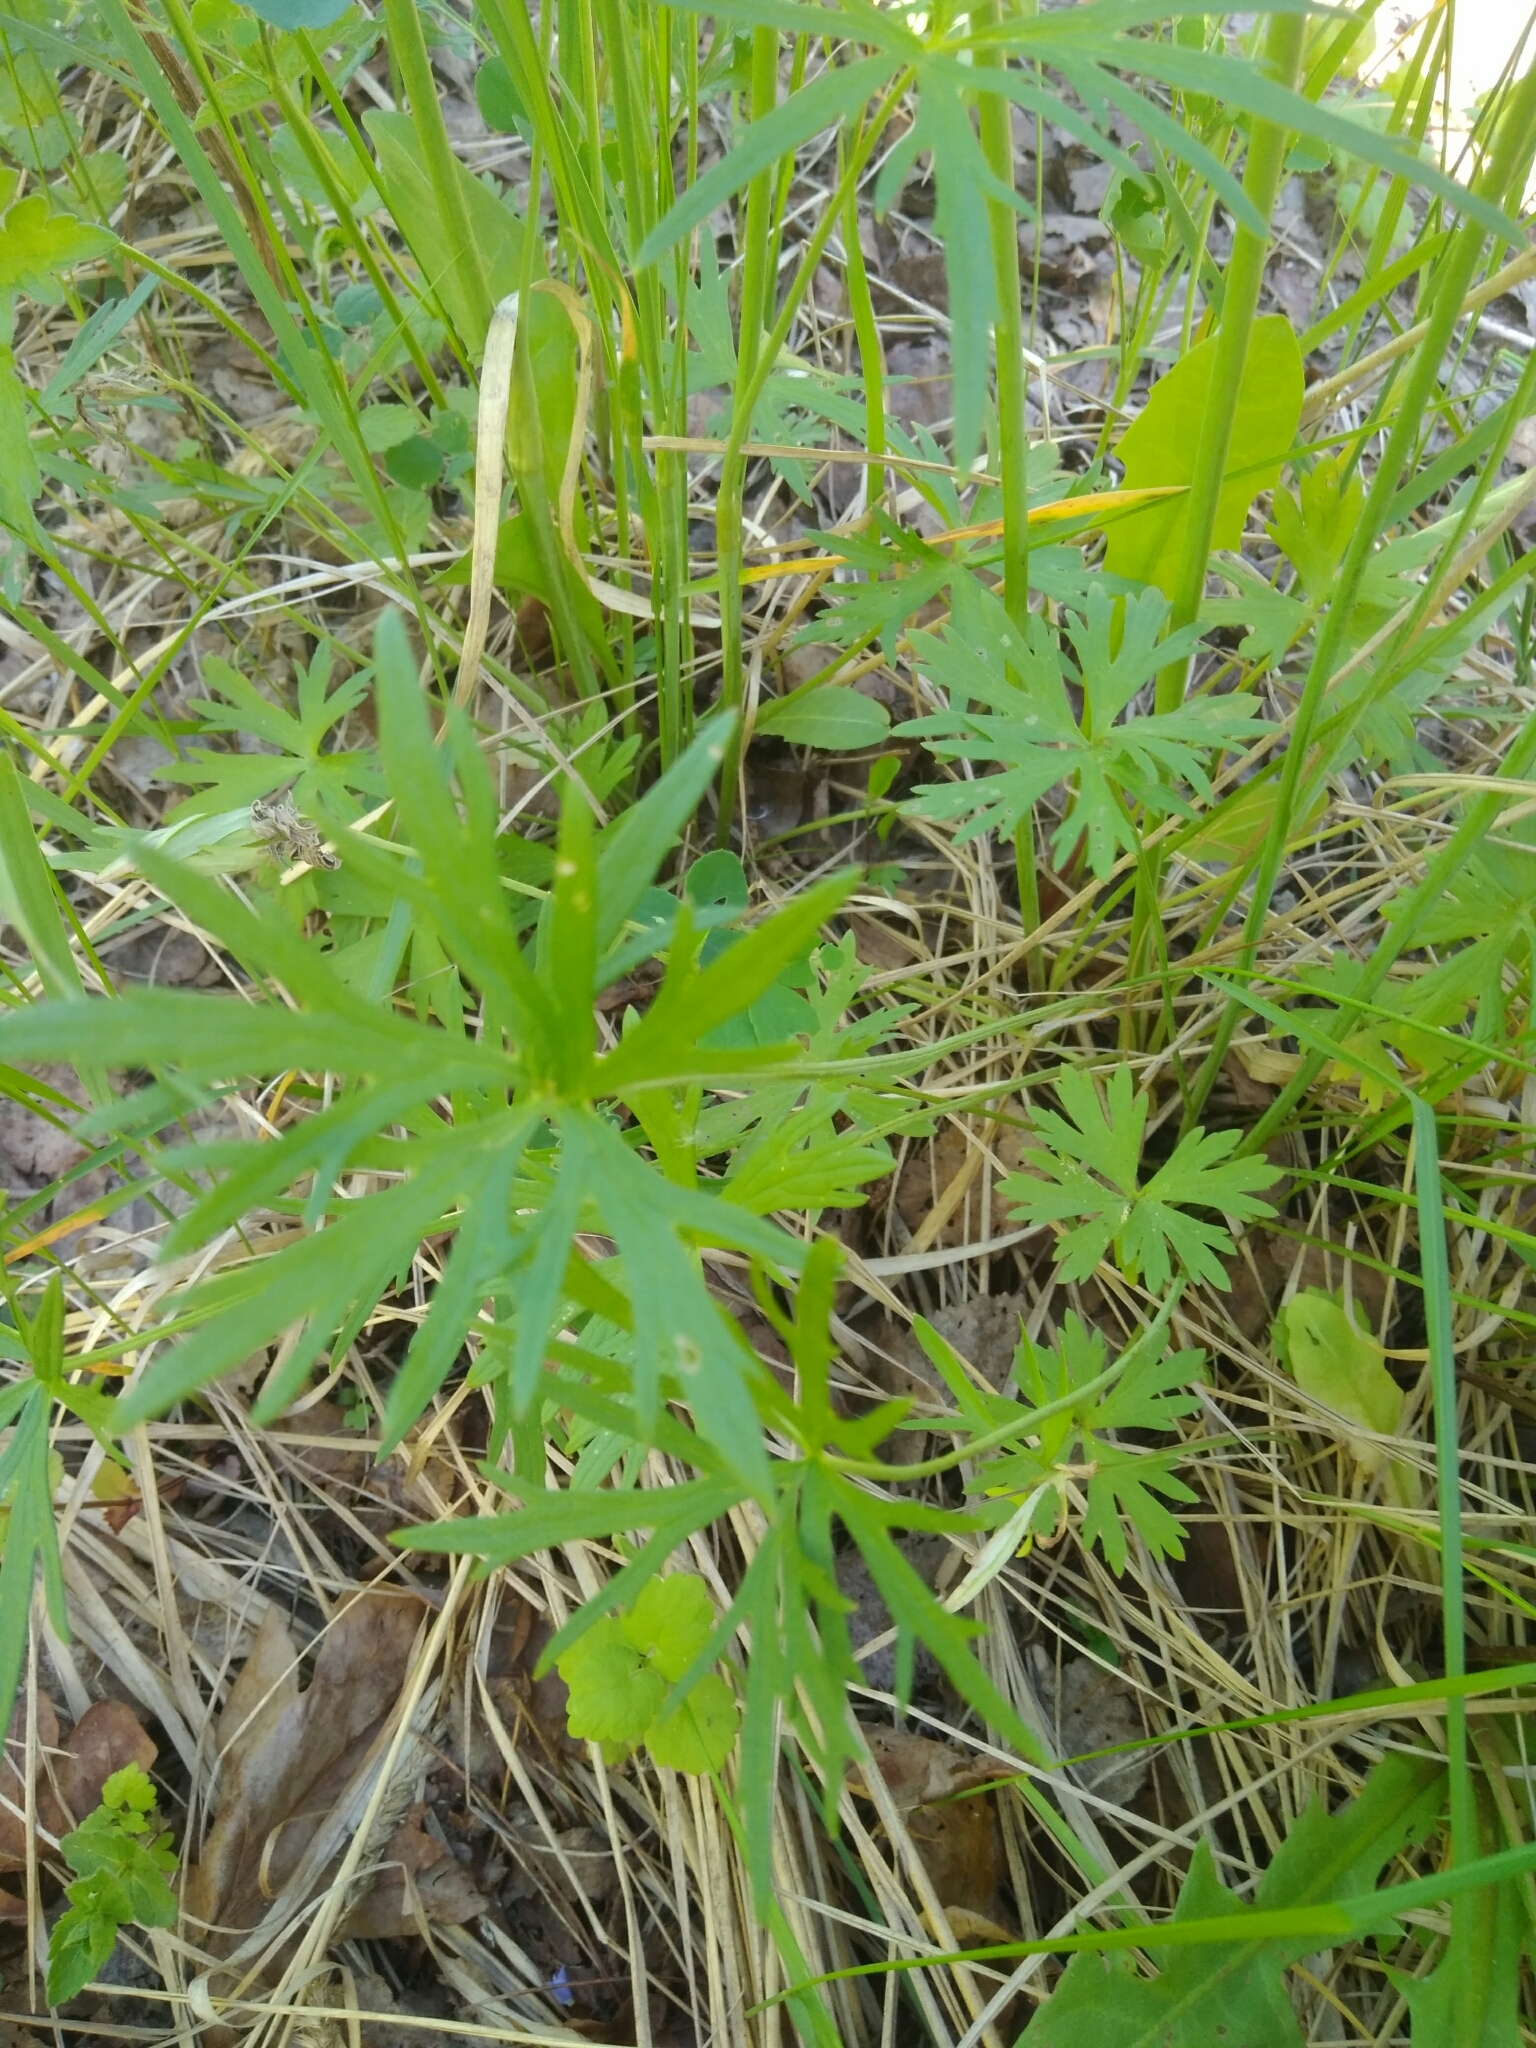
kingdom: Plantae
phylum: Tracheophyta
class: Magnoliopsida
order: Ranunculales
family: Ranunculaceae
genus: Ranunculus
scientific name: Ranunculus acris
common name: Meadow buttercup
